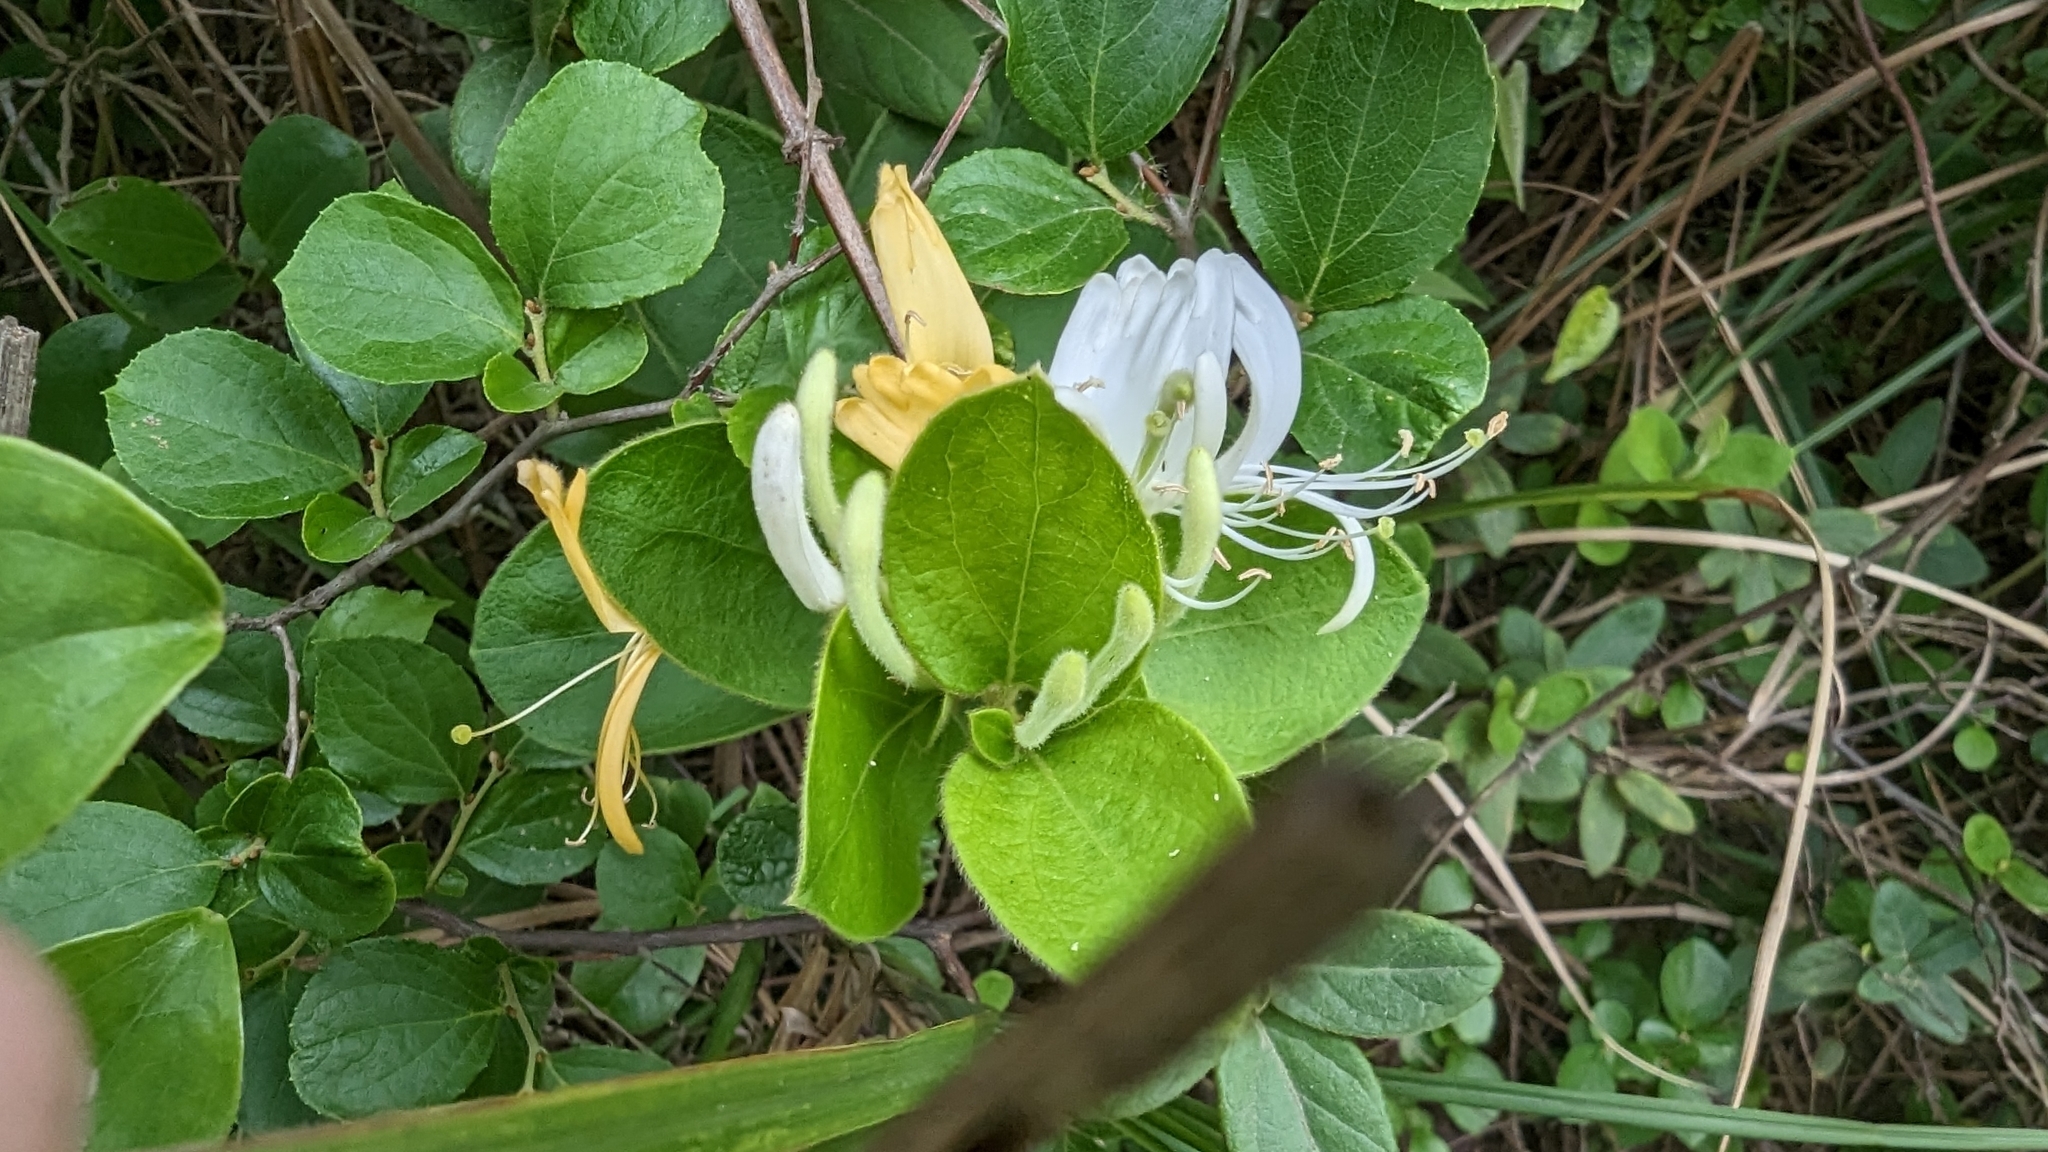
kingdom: Plantae
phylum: Tracheophyta
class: Magnoliopsida
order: Dipsacales
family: Caprifoliaceae
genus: Lonicera
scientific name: Lonicera japonica
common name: Japanese honeysuckle
